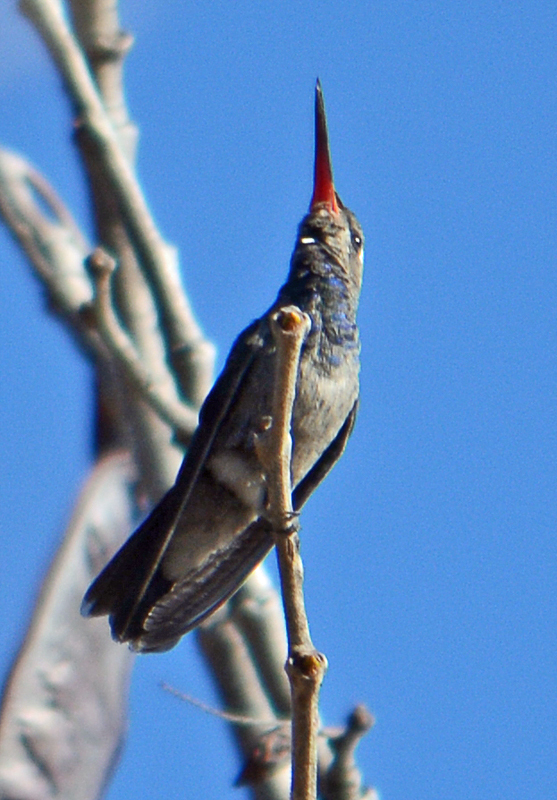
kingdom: Animalia
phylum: Chordata
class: Aves
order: Apodiformes
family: Trochilidae
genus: Cynanthus
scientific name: Cynanthus latirostris
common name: Broad-billed hummingbird
